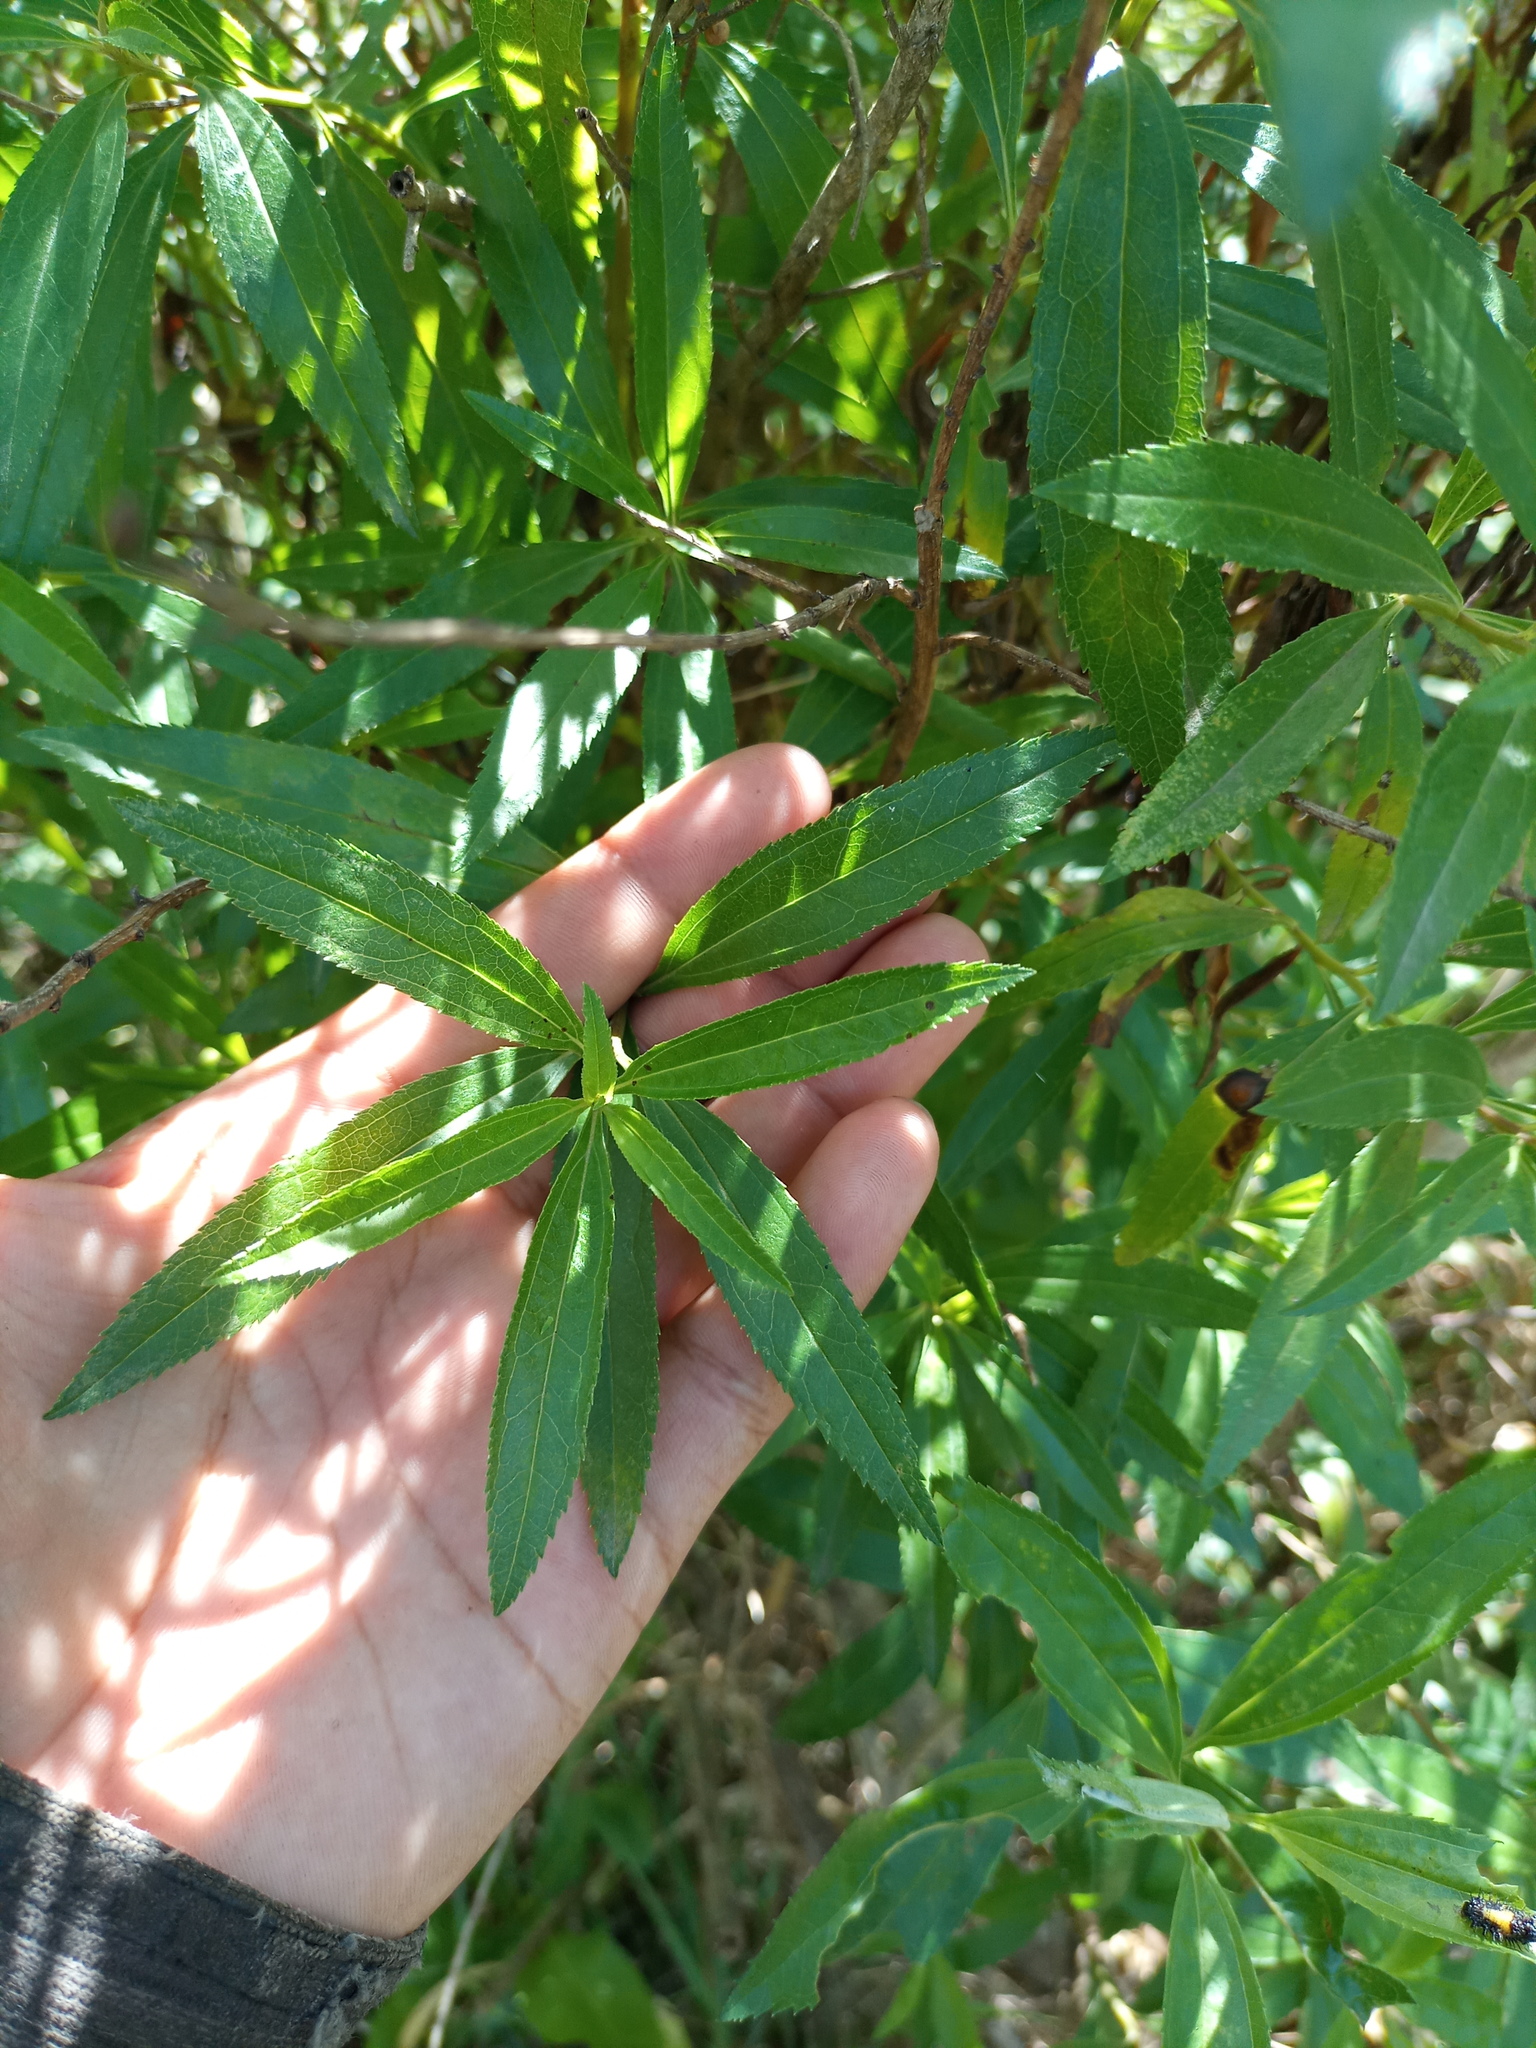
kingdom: Plantae
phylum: Tracheophyta
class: Magnoliopsida
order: Asterales
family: Asteraceae
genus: Baccharis
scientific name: Baccharis punctulata
